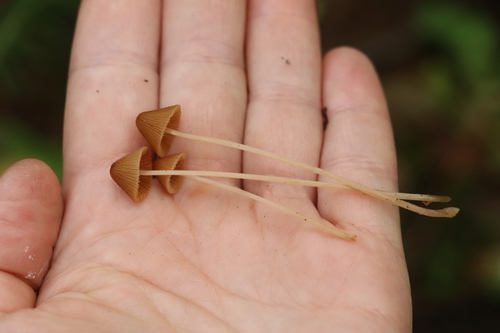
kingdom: Fungi
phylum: Basidiomycota
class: Agaricomycetes
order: Agaricales
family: Bolbitiaceae
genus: Conocybe
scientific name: Conocybe
